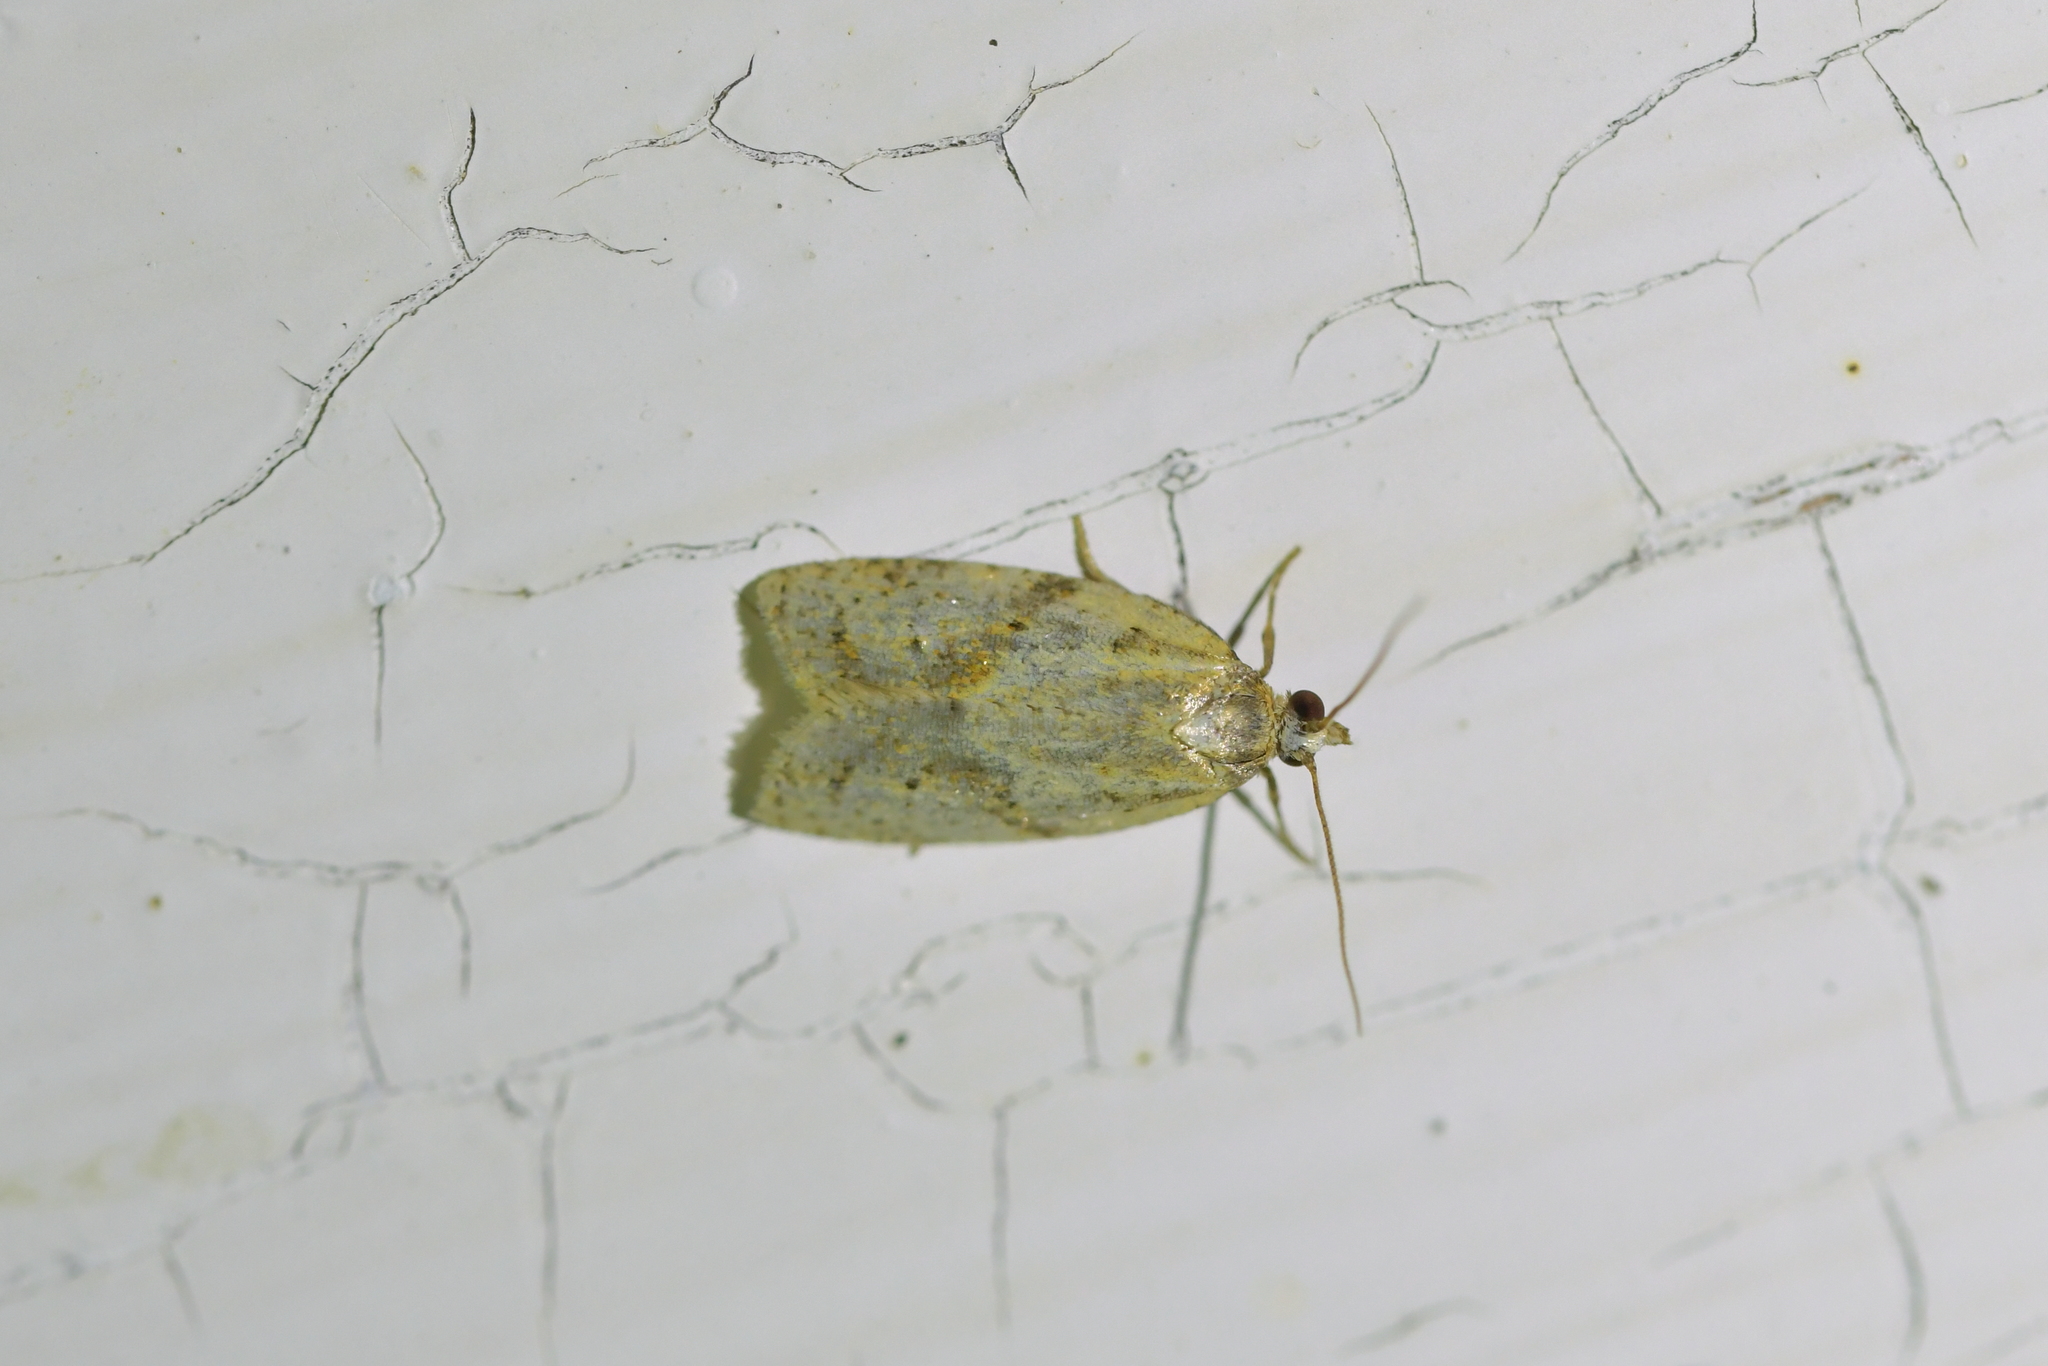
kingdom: Animalia
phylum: Arthropoda
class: Insecta
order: Lepidoptera
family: Tortricidae
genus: Clepsis
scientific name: Clepsis
